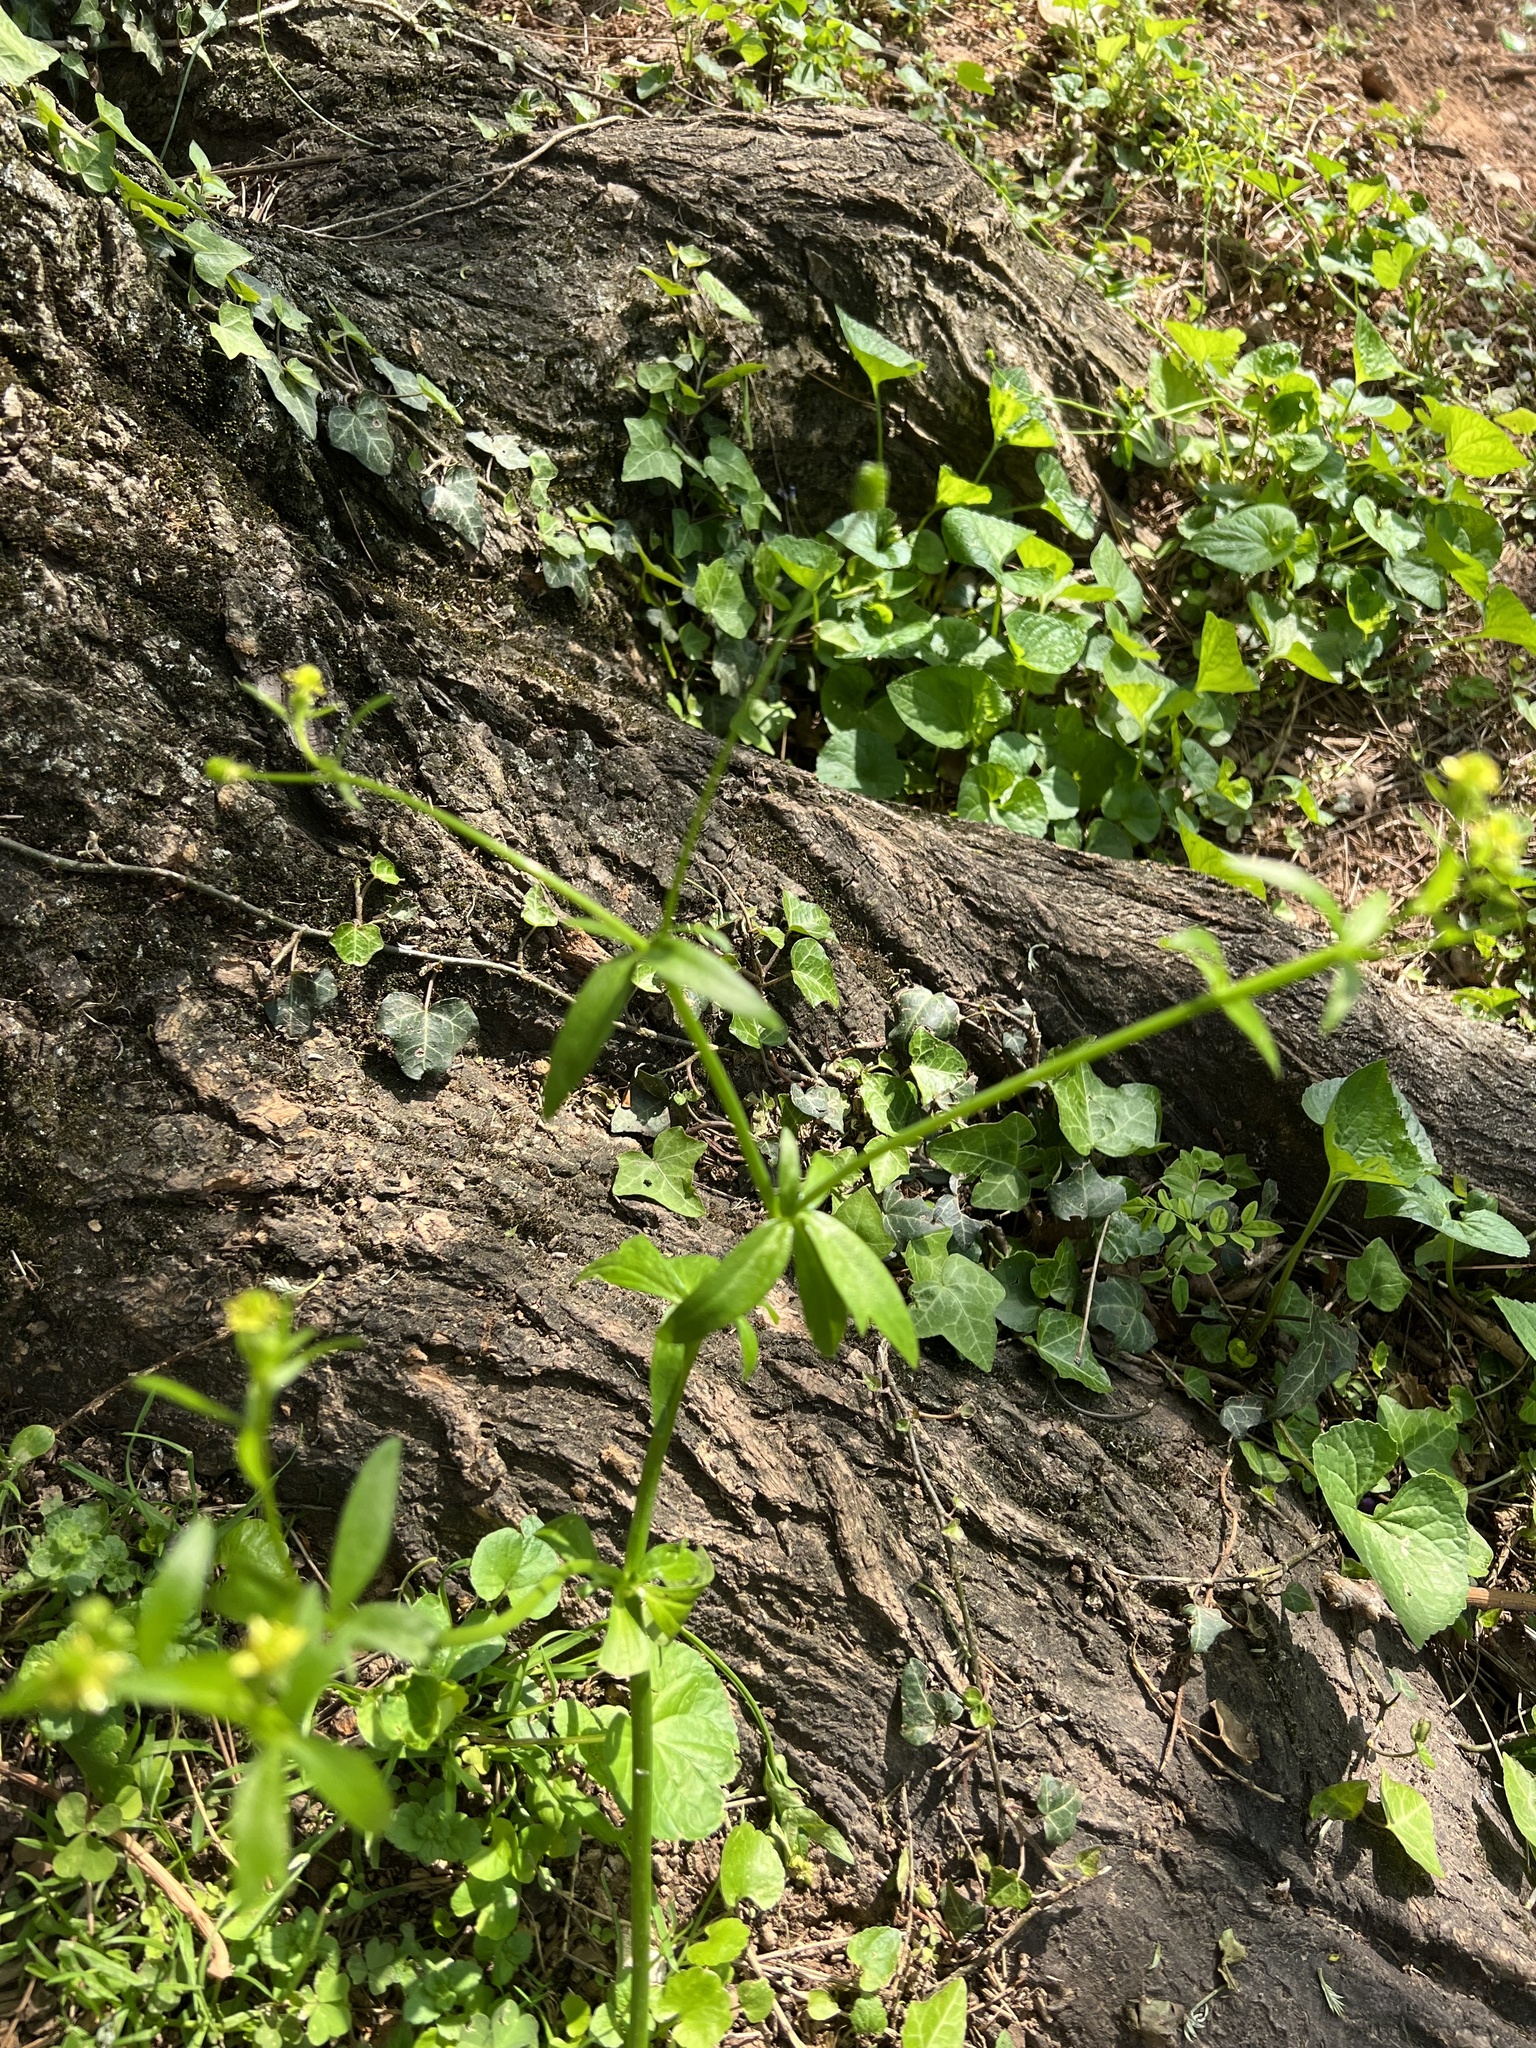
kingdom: Plantae
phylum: Tracheophyta
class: Magnoliopsida
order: Ranunculales
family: Ranunculaceae
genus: Ranunculus
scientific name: Ranunculus abortivus
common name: Early wood buttercup
